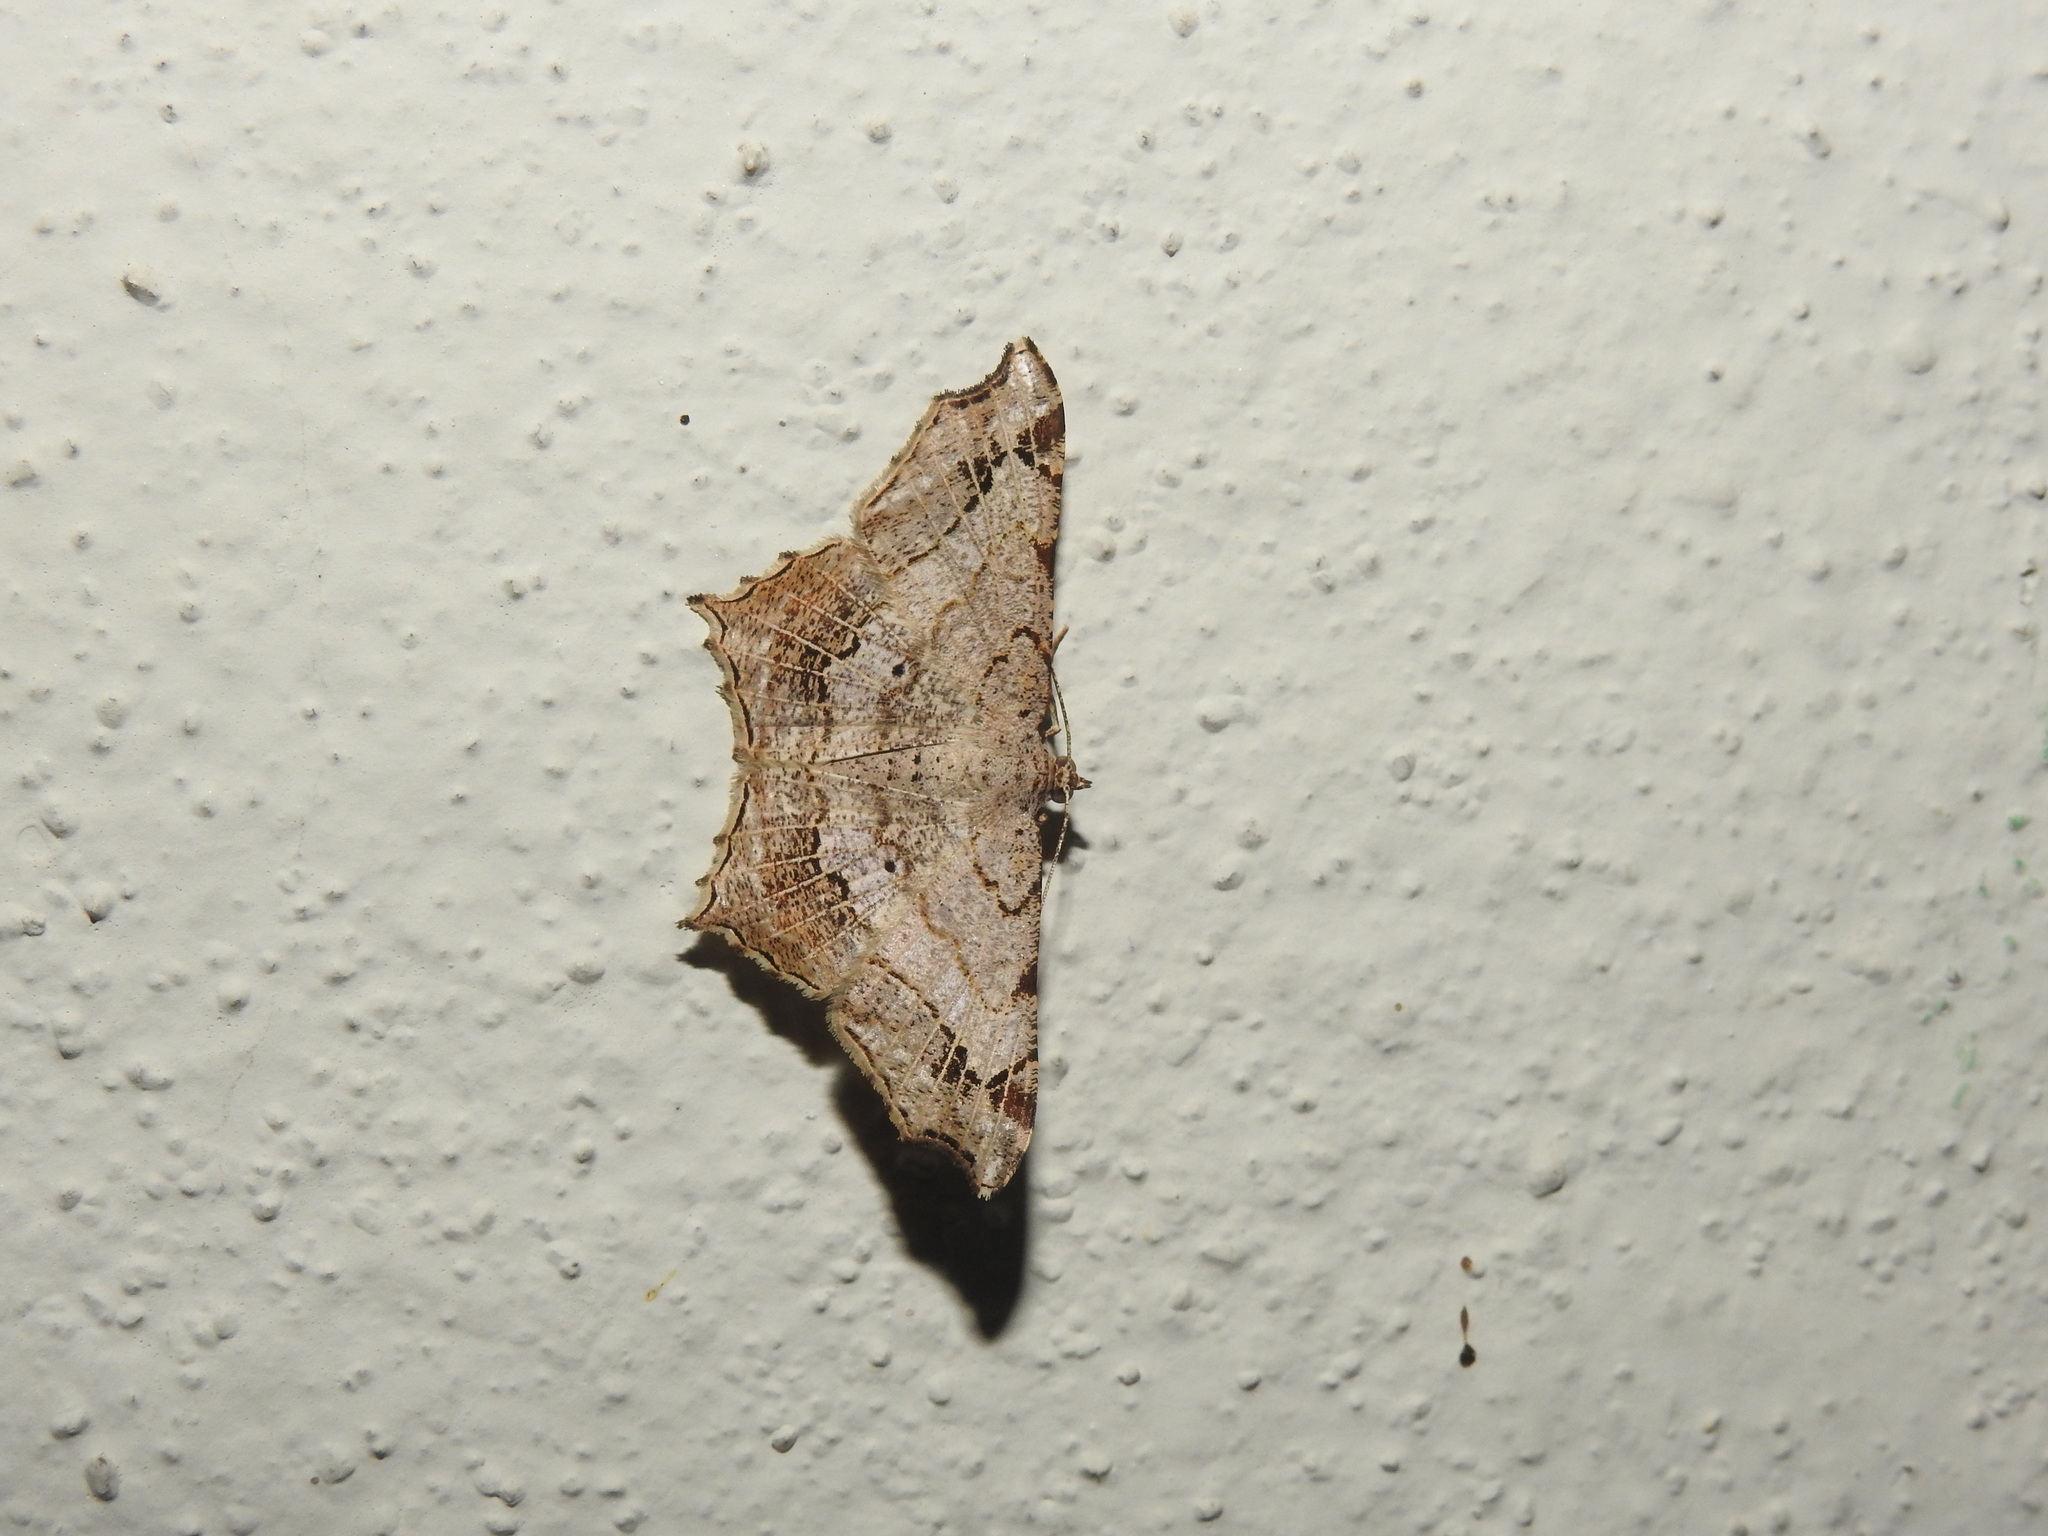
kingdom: Animalia
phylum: Arthropoda
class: Insecta
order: Lepidoptera
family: Geometridae
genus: Chiasmia
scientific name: Chiasmia emersaria
